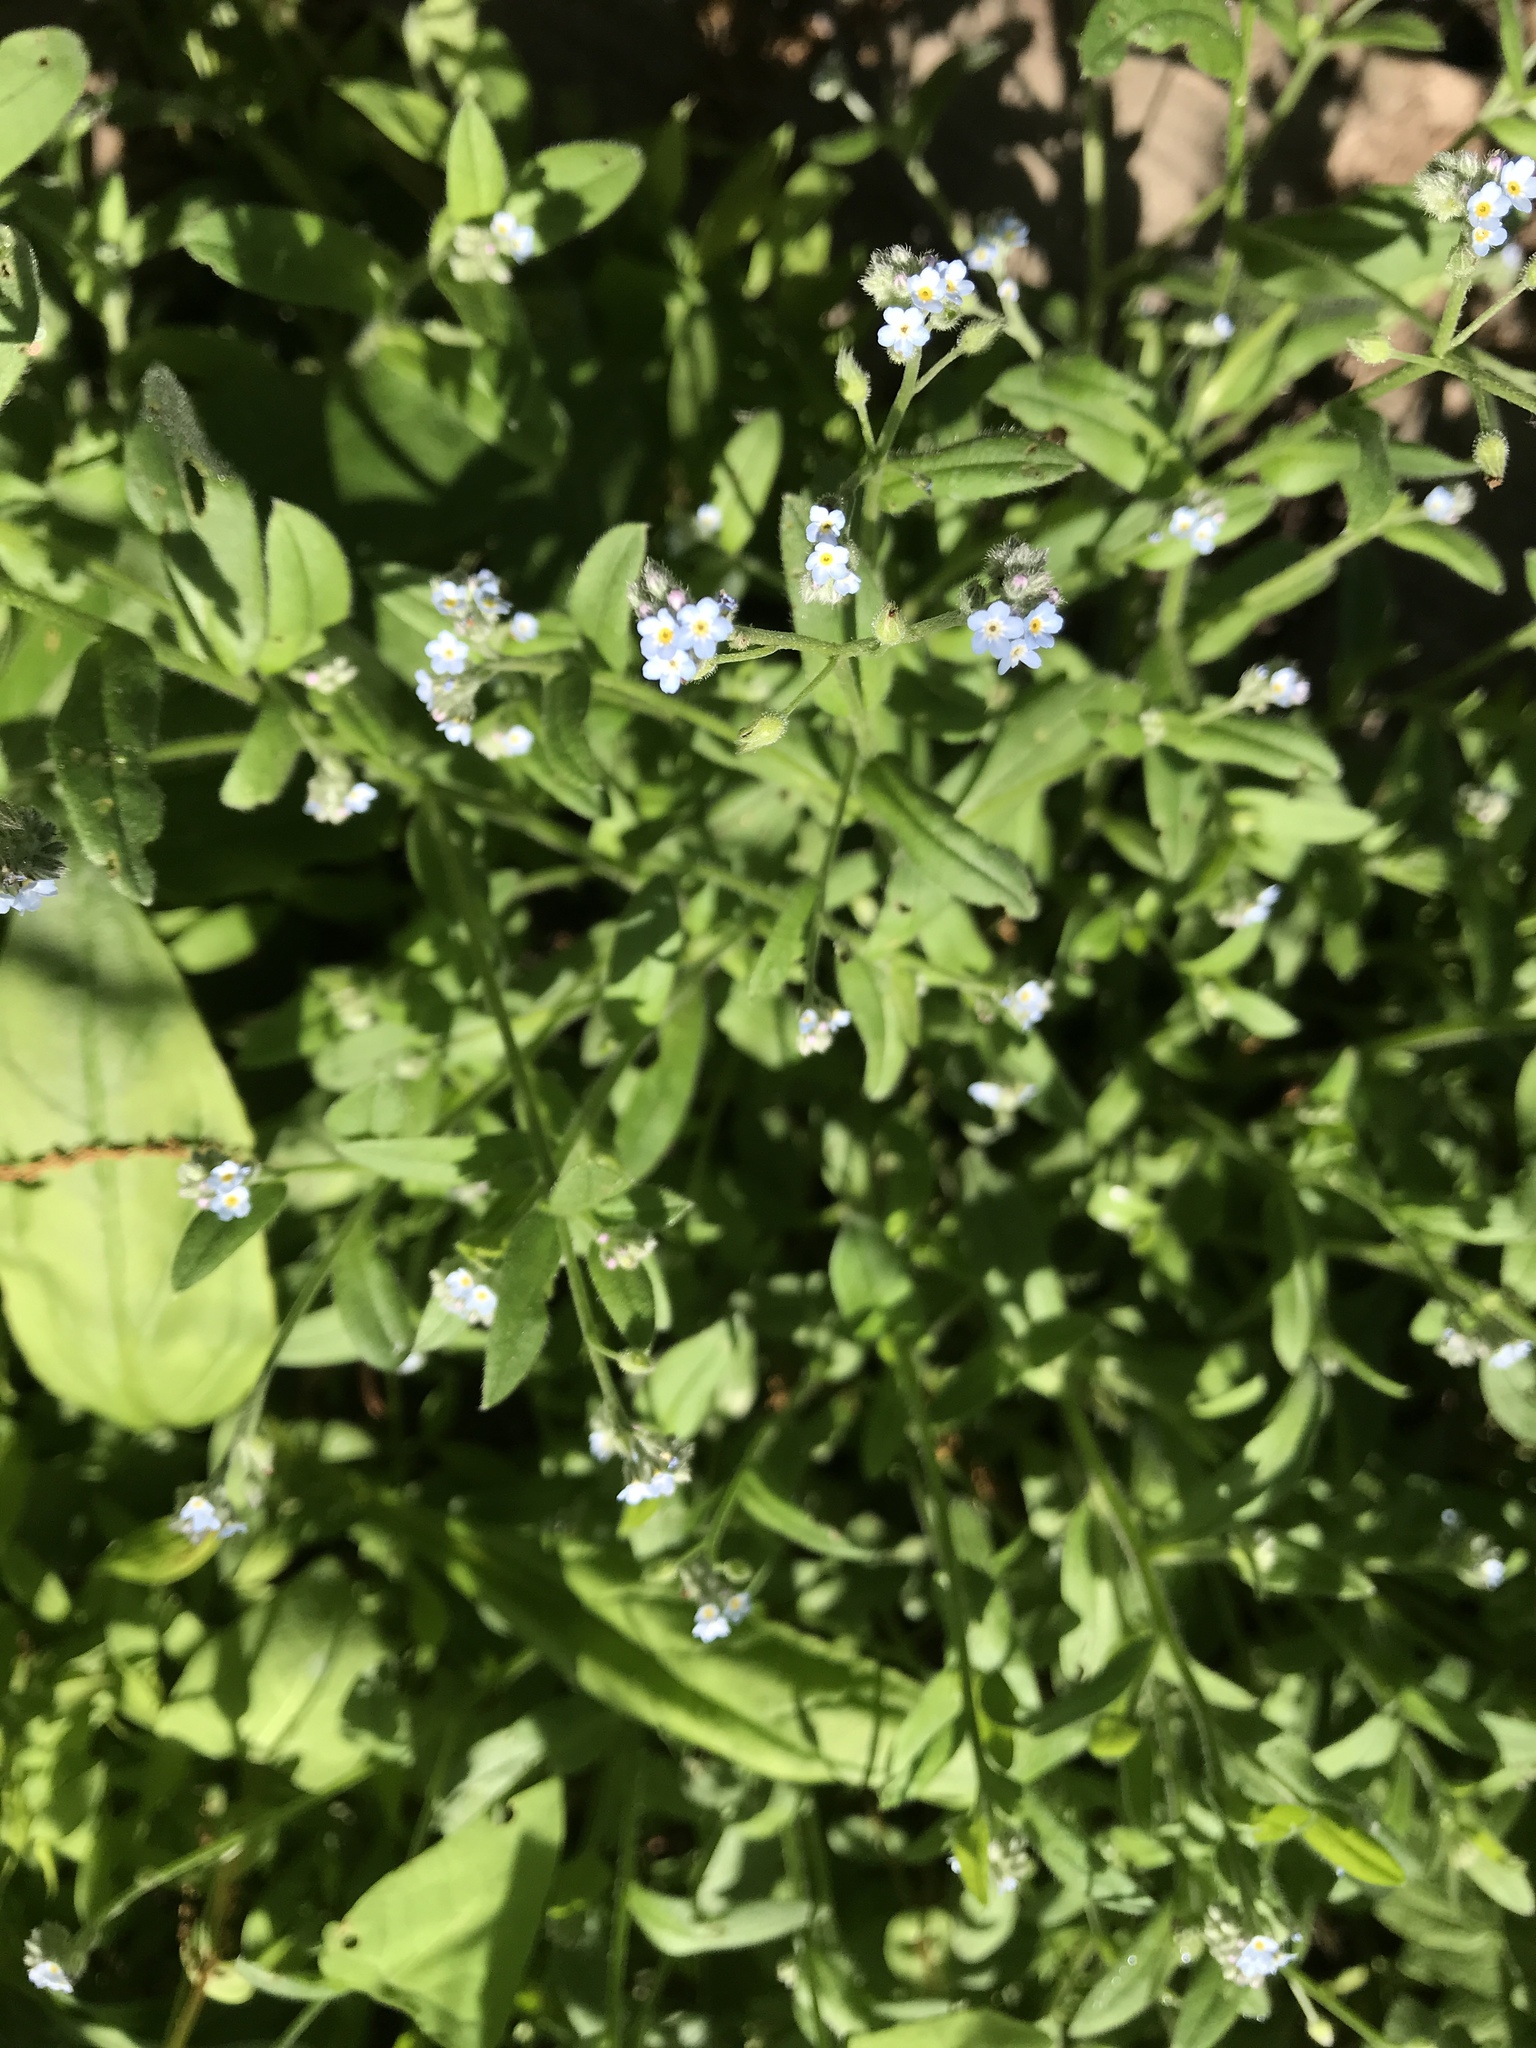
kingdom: Plantae
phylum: Tracheophyta
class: Magnoliopsida
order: Boraginales
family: Boraginaceae
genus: Myosotis
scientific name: Myosotis sylvatica
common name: Wood forget-me-not
